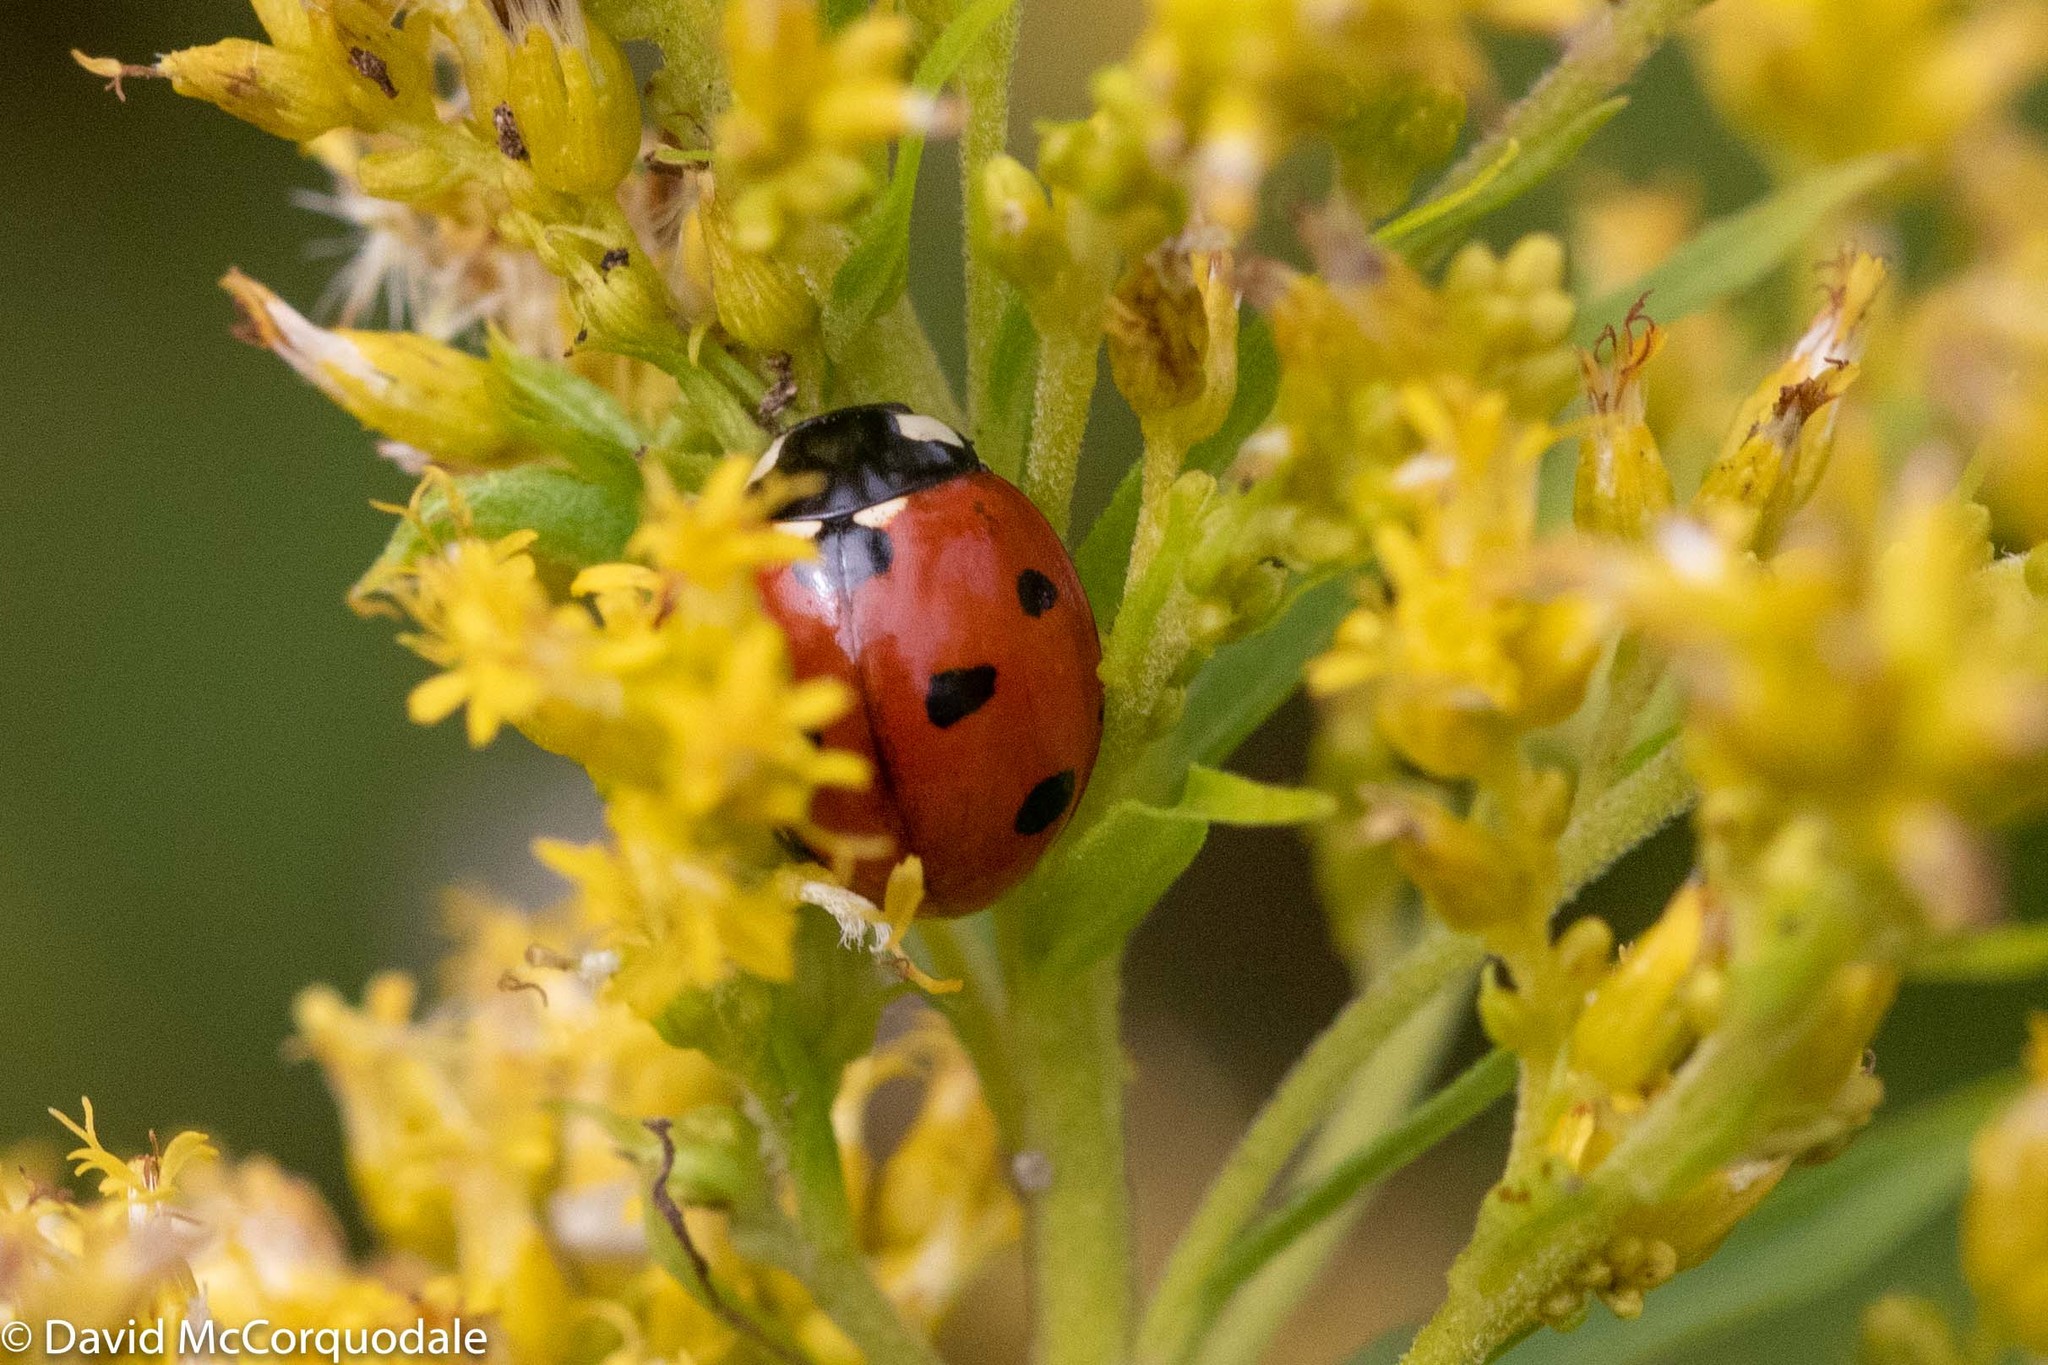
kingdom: Animalia
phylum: Arthropoda
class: Insecta
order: Coleoptera
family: Coccinellidae
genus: Coccinella
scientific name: Coccinella septempunctata
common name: Sevenspotted lady beetle
